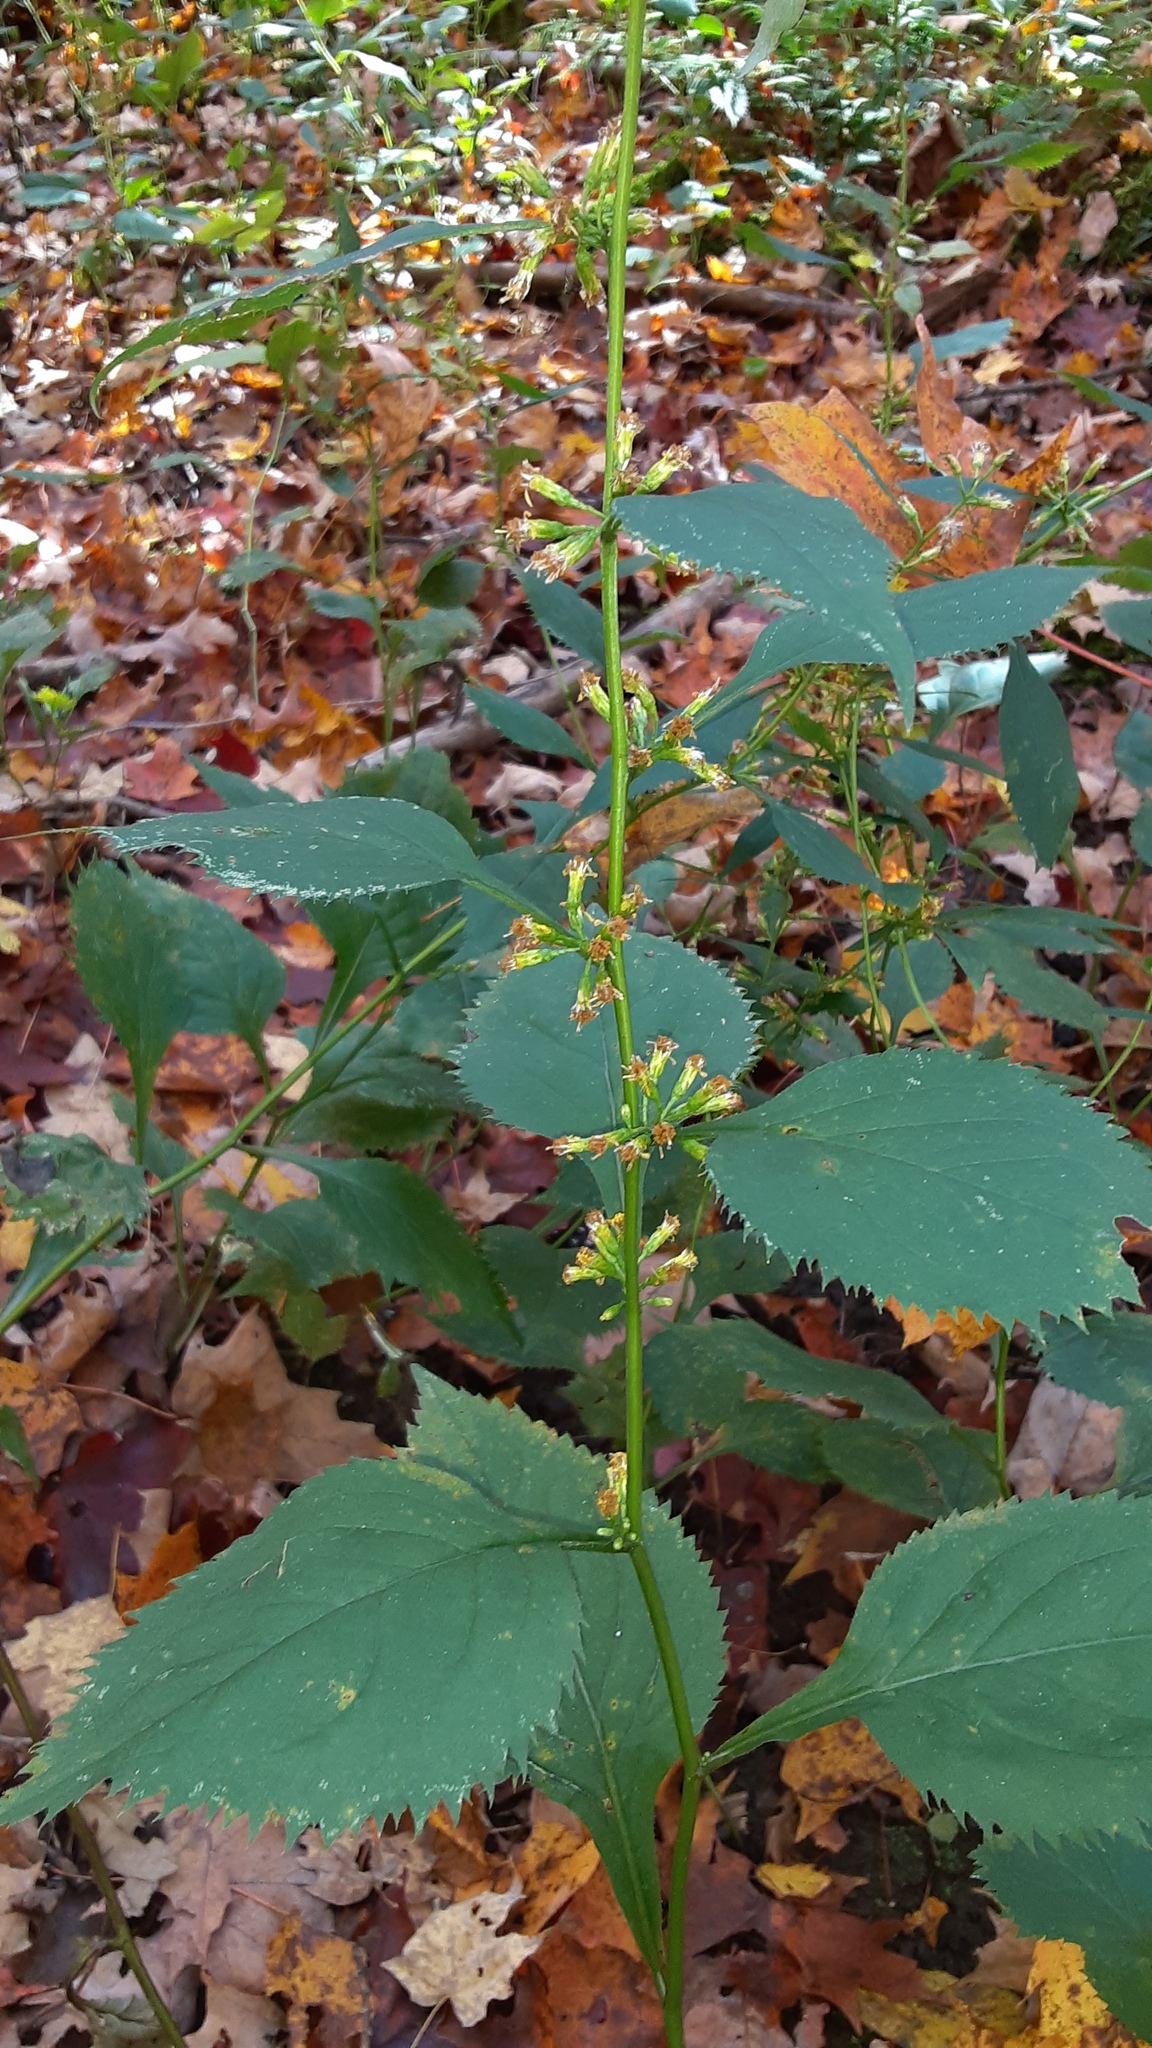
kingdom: Plantae
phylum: Tracheophyta
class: Magnoliopsida
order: Asterales
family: Asteraceae
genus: Solidago
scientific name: Solidago flexicaulis
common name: Zig-zag goldenrod
